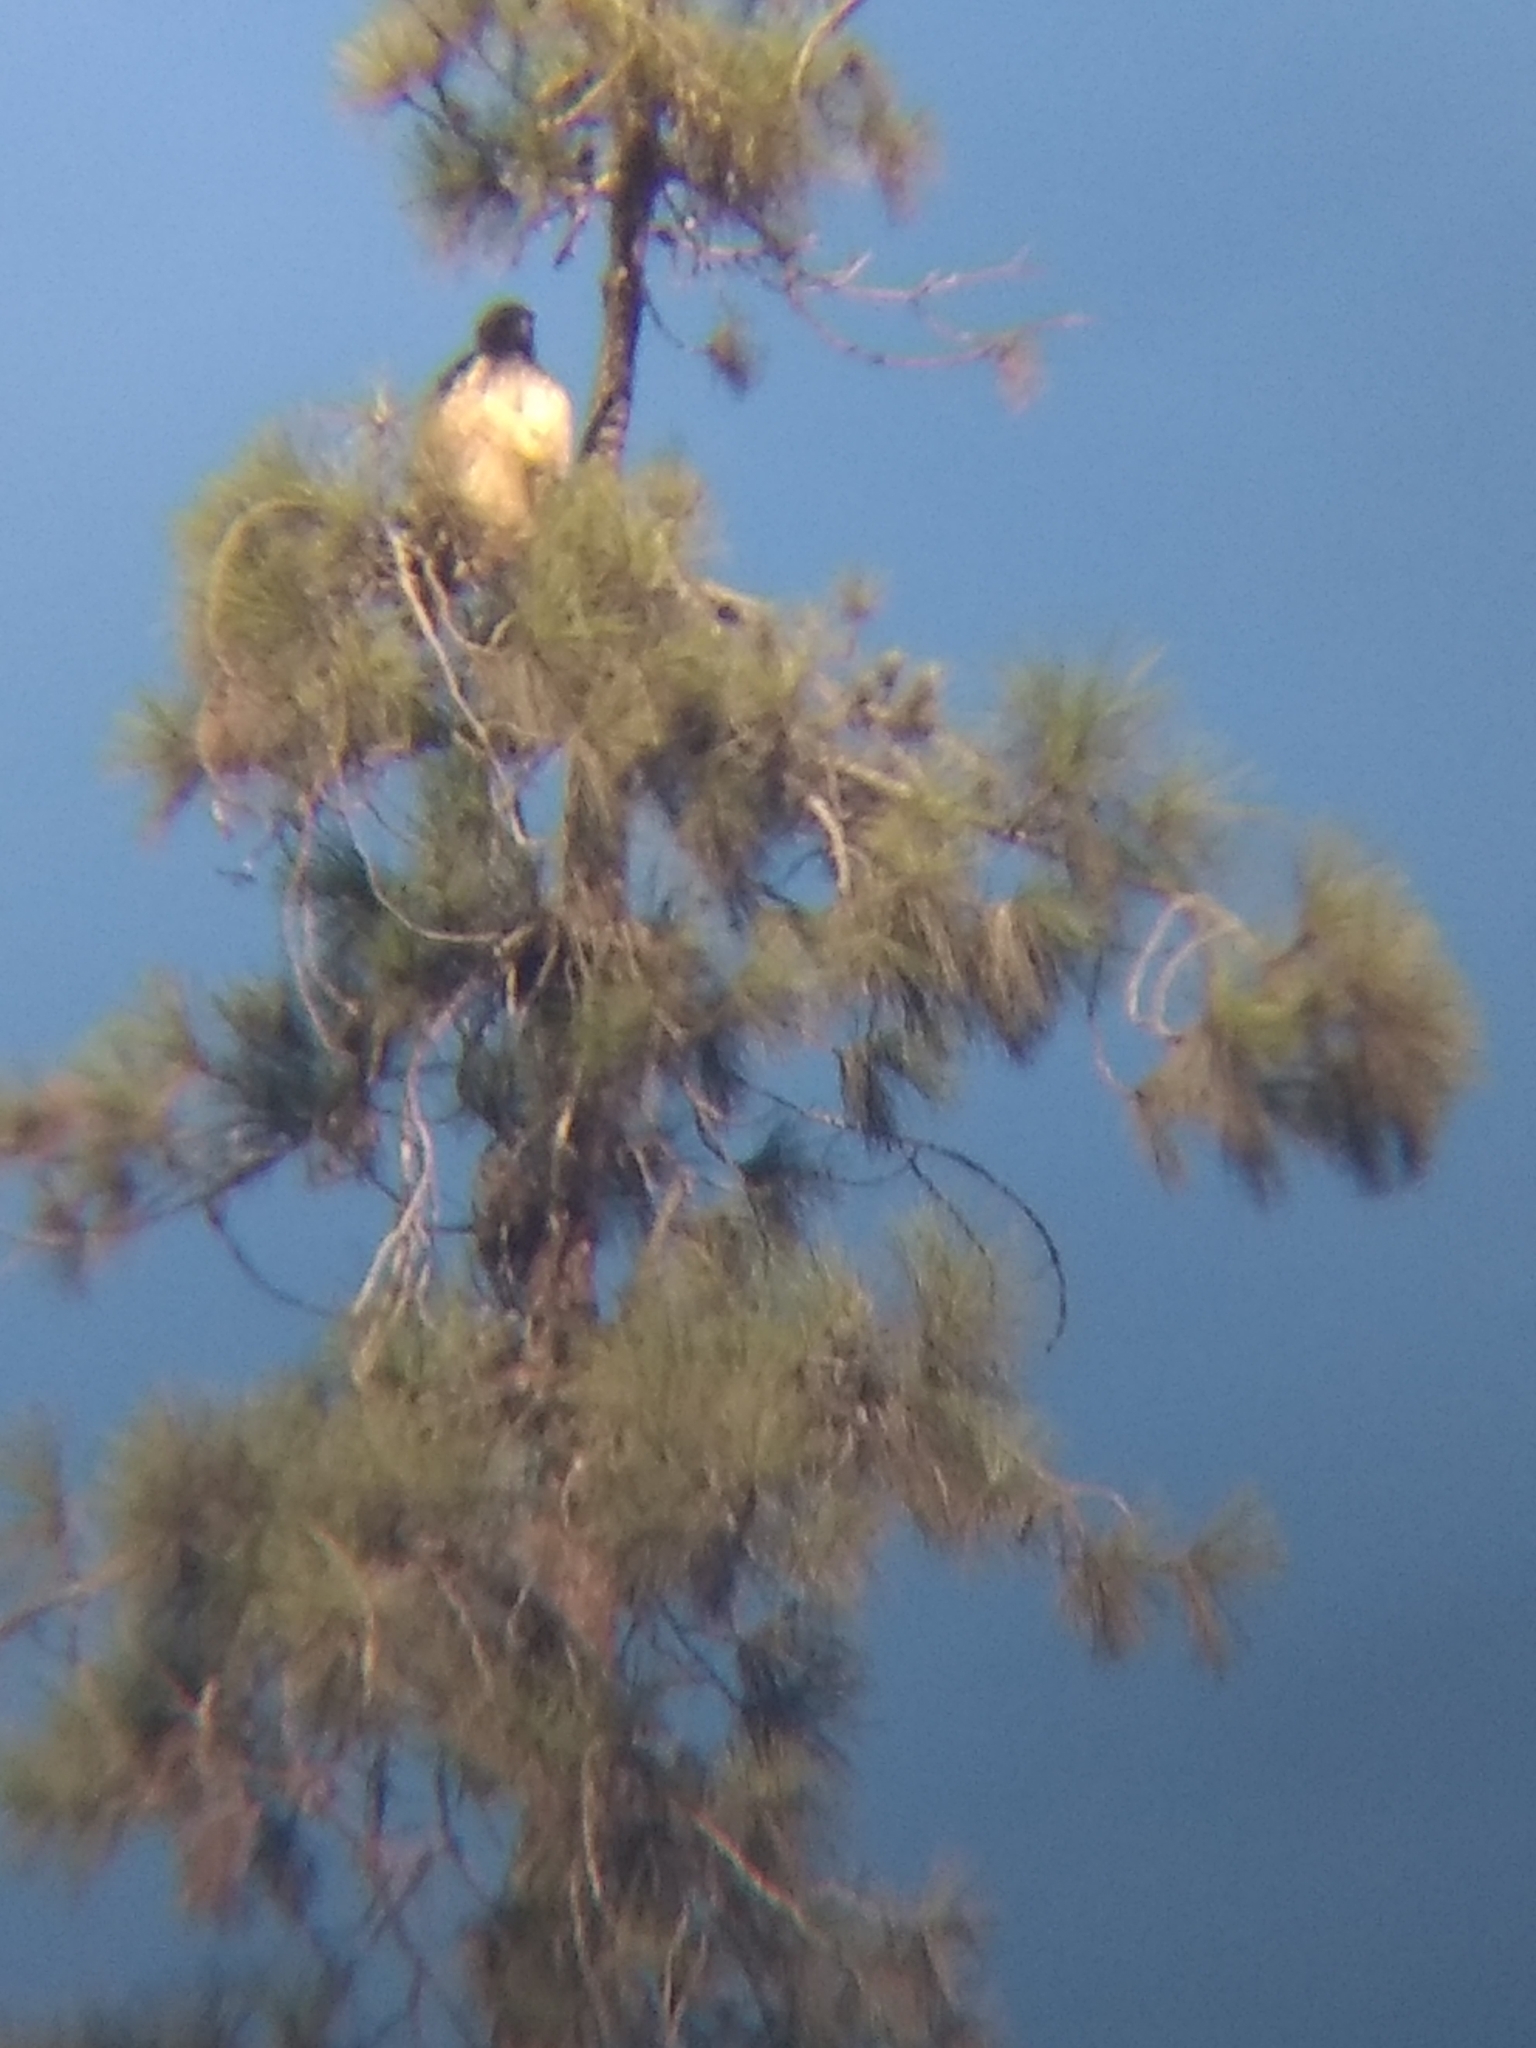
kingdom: Animalia
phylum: Chordata
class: Aves
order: Accipitriformes
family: Accipitridae
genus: Buteo
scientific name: Buteo jamaicensis
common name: Red-tailed hawk
